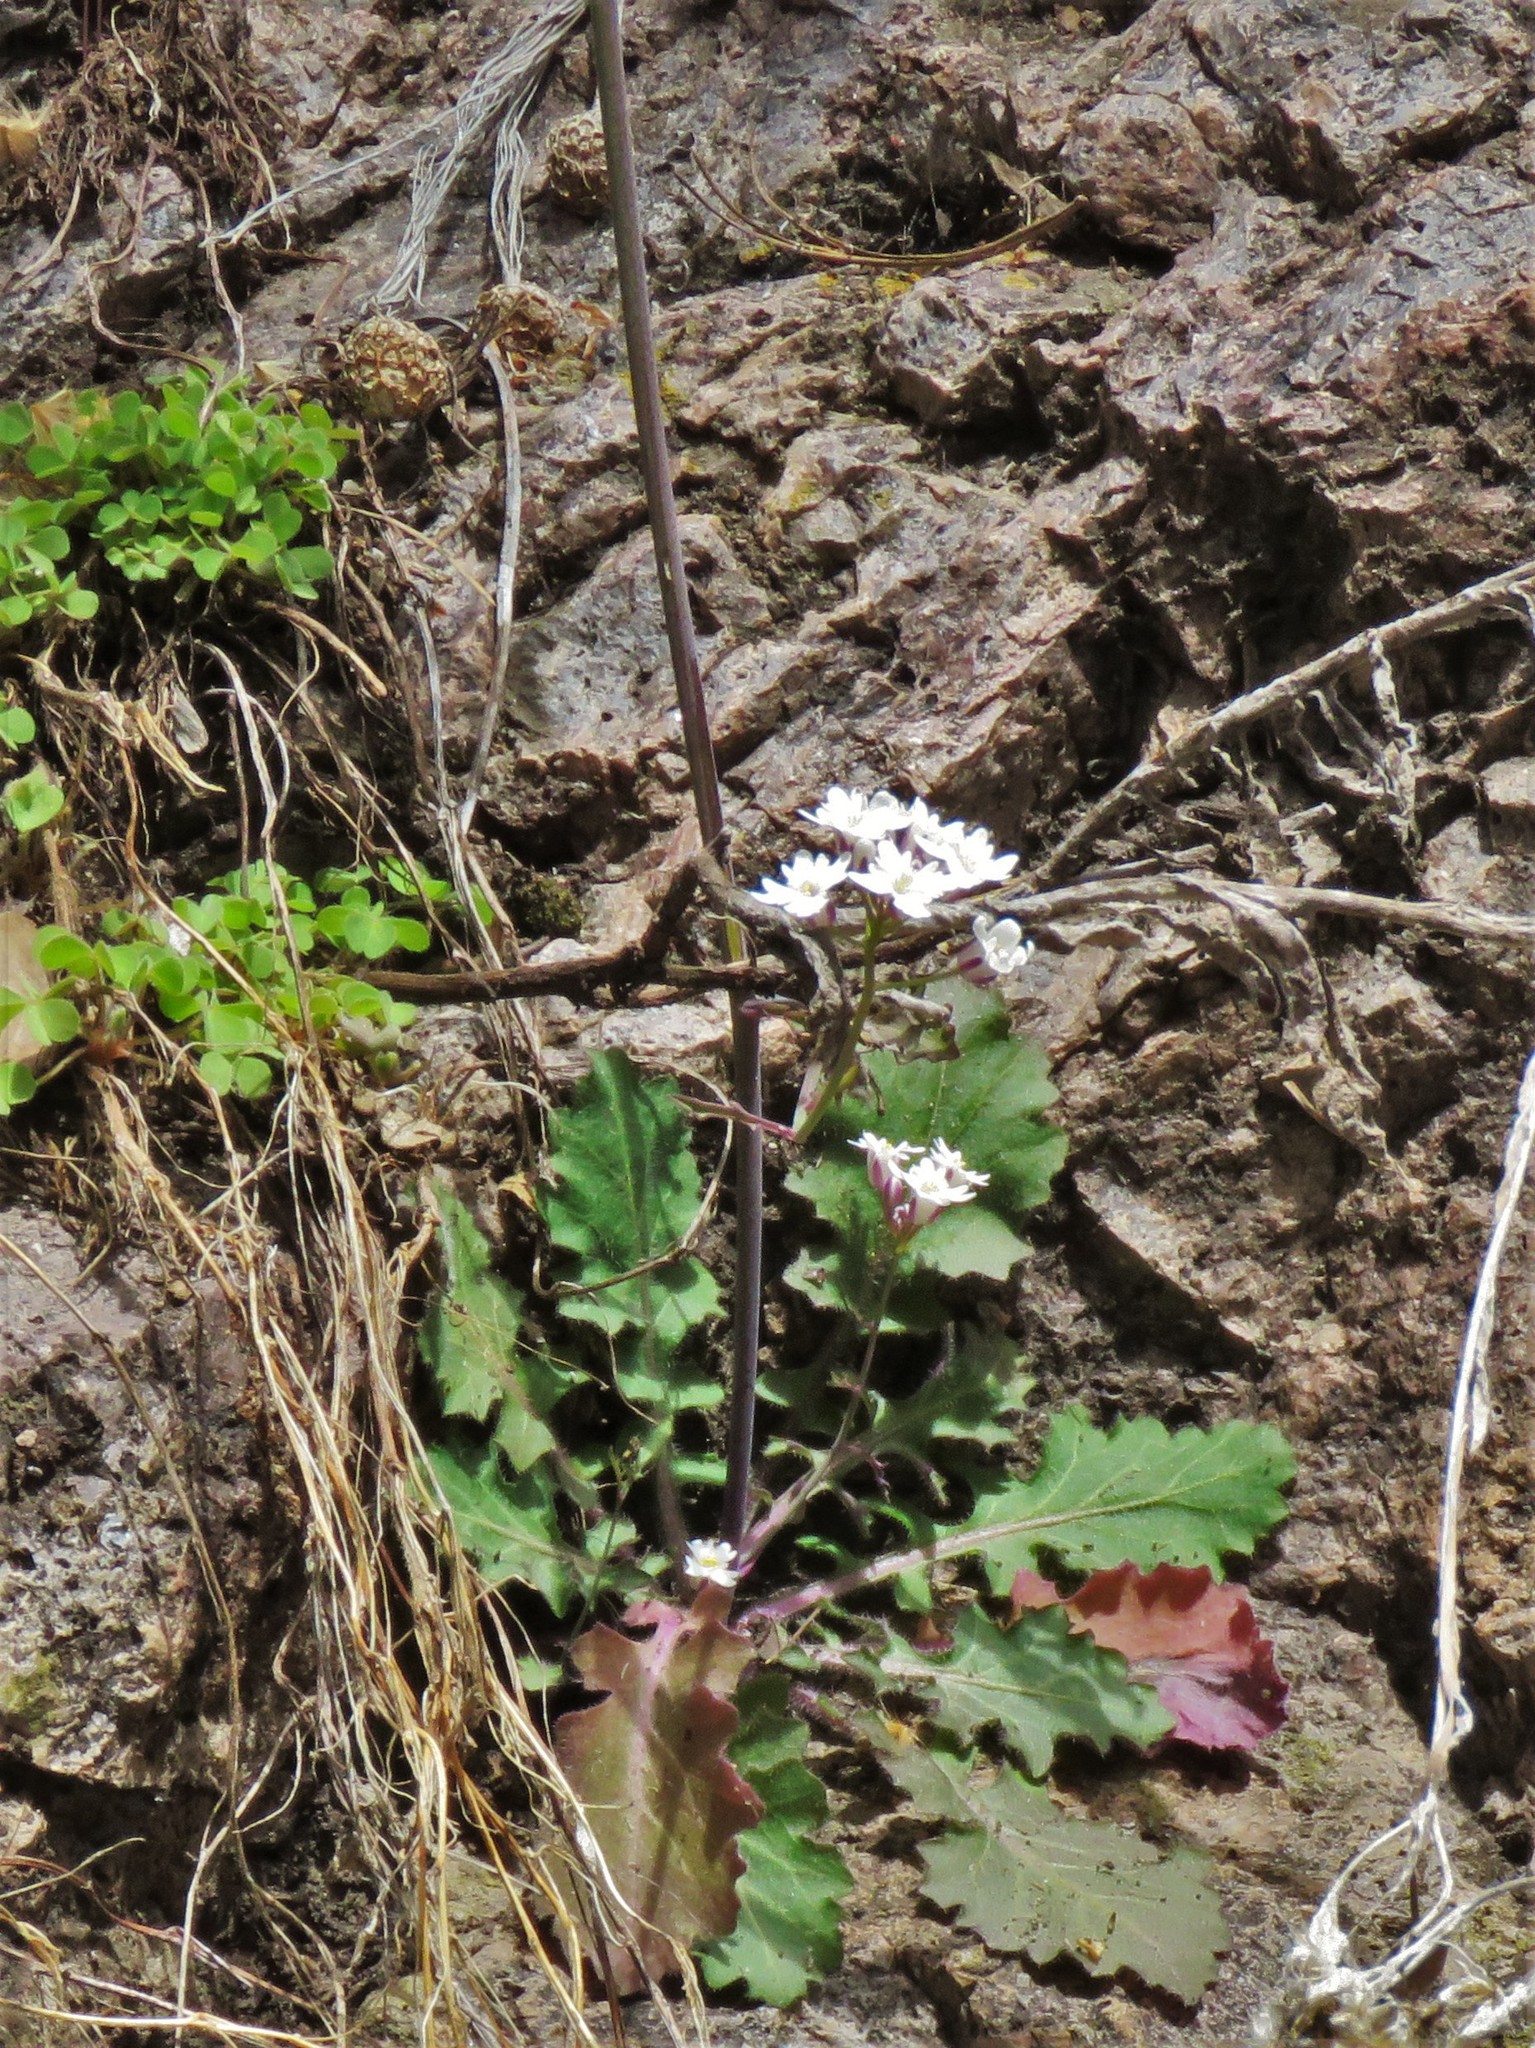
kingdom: Plantae
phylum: Tracheophyta
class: Magnoliopsida
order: Brassicales
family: Brassicaceae
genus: Dryopetalon
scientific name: Dryopetalon runcinatum
